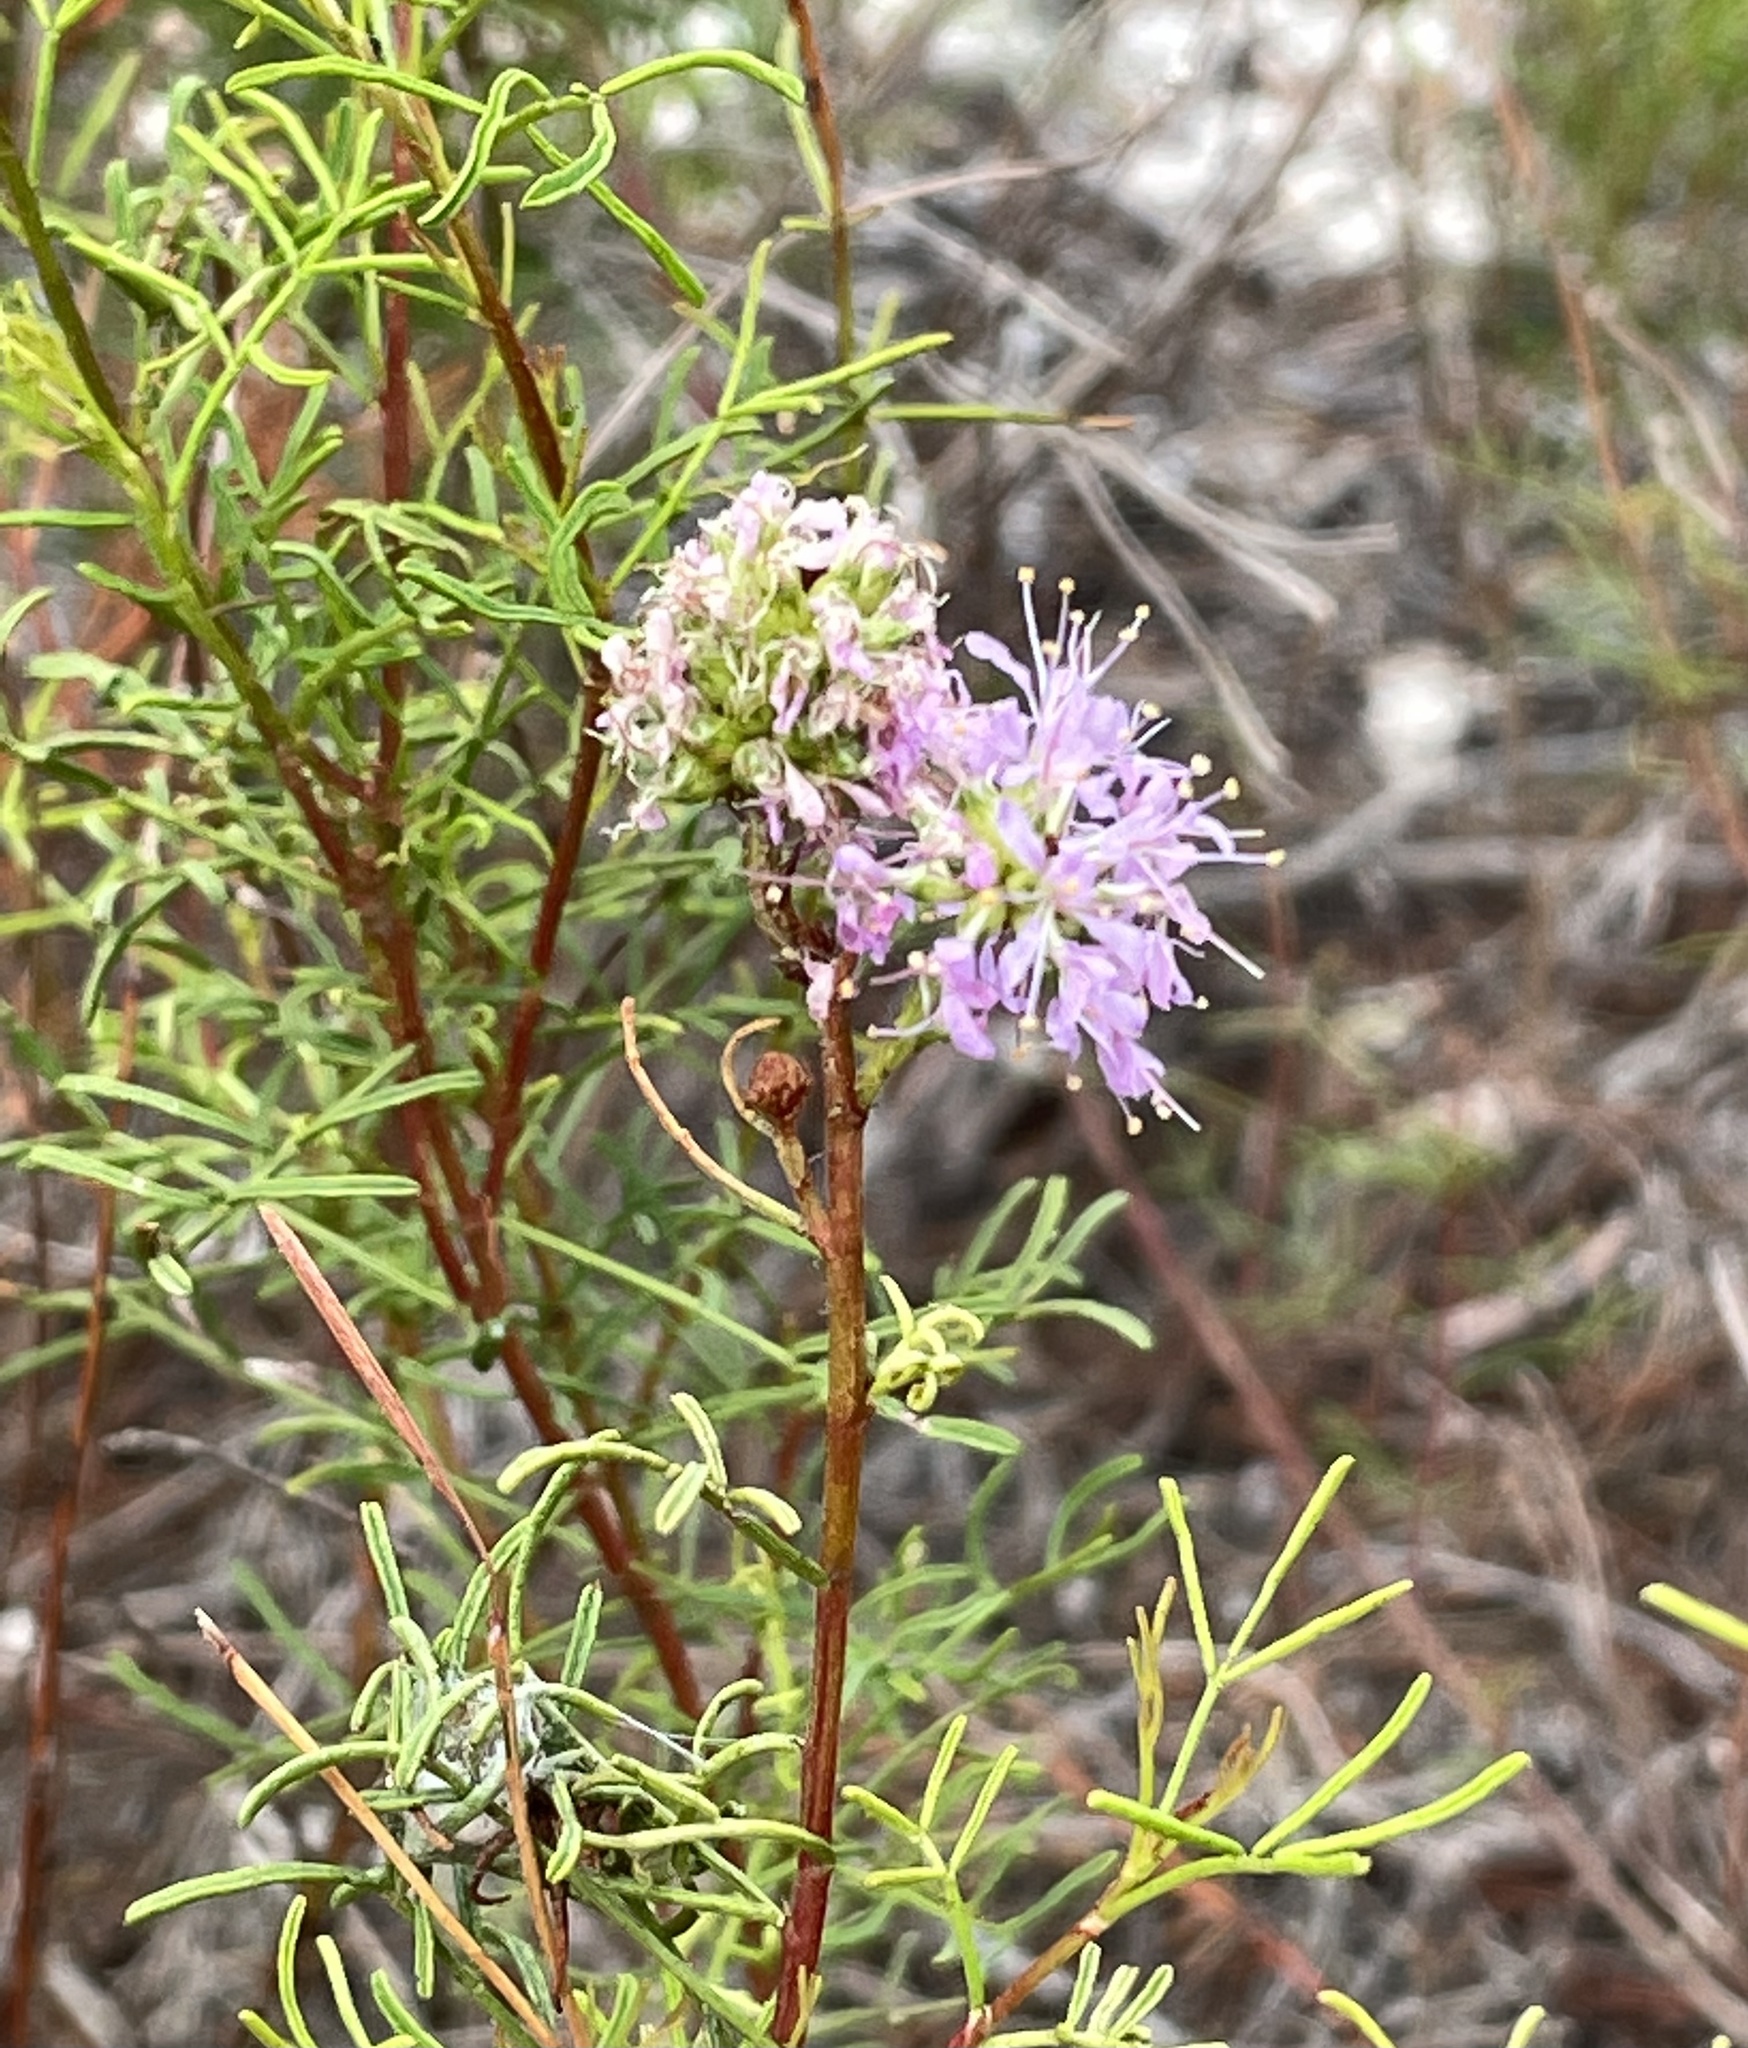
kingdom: Plantae
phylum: Tracheophyta
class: Magnoliopsida
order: Fabales
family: Fabaceae
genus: Dalea
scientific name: Dalea feayi
